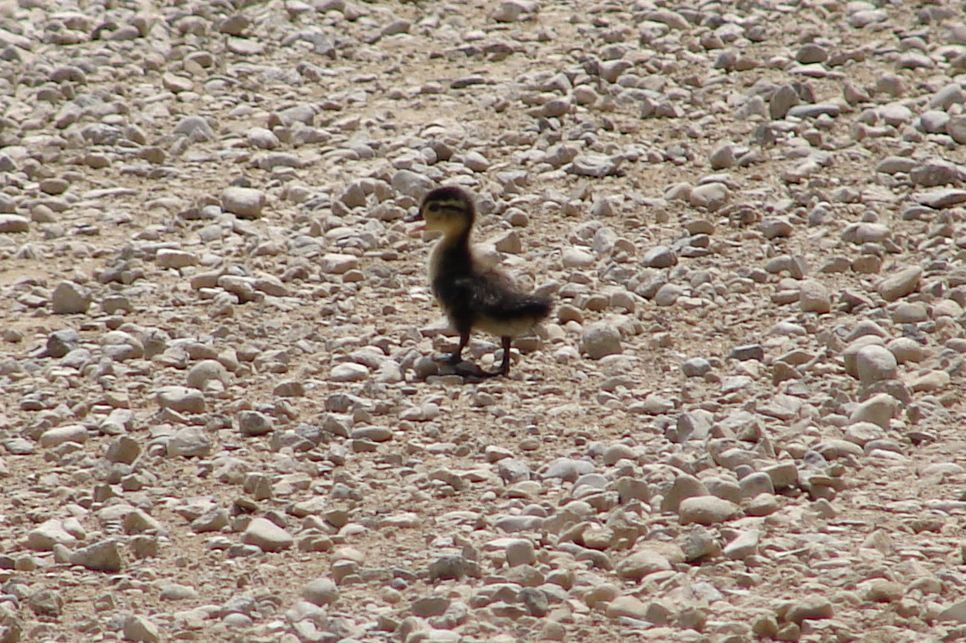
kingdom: Animalia
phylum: Chordata
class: Aves
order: Anseriformes
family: Anatidae
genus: Aix
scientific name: Aix sponsa
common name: Wood duck
